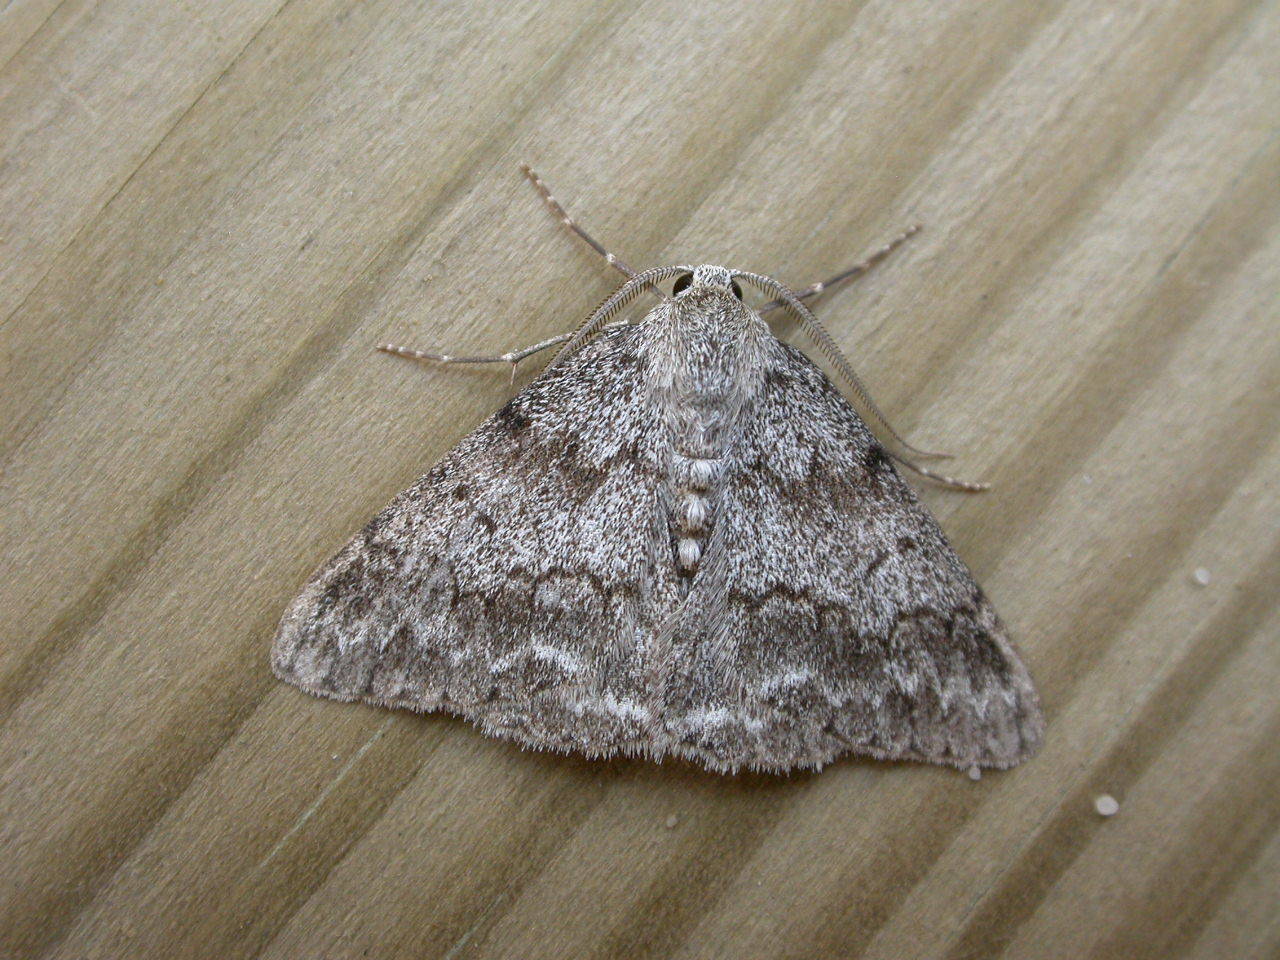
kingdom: Animalia
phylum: Arthropoda
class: Insecta
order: Lepidoptera
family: Geometridae
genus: Pseudoterpna
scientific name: Pseudoterpna coronillaria
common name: Jersey emerald
